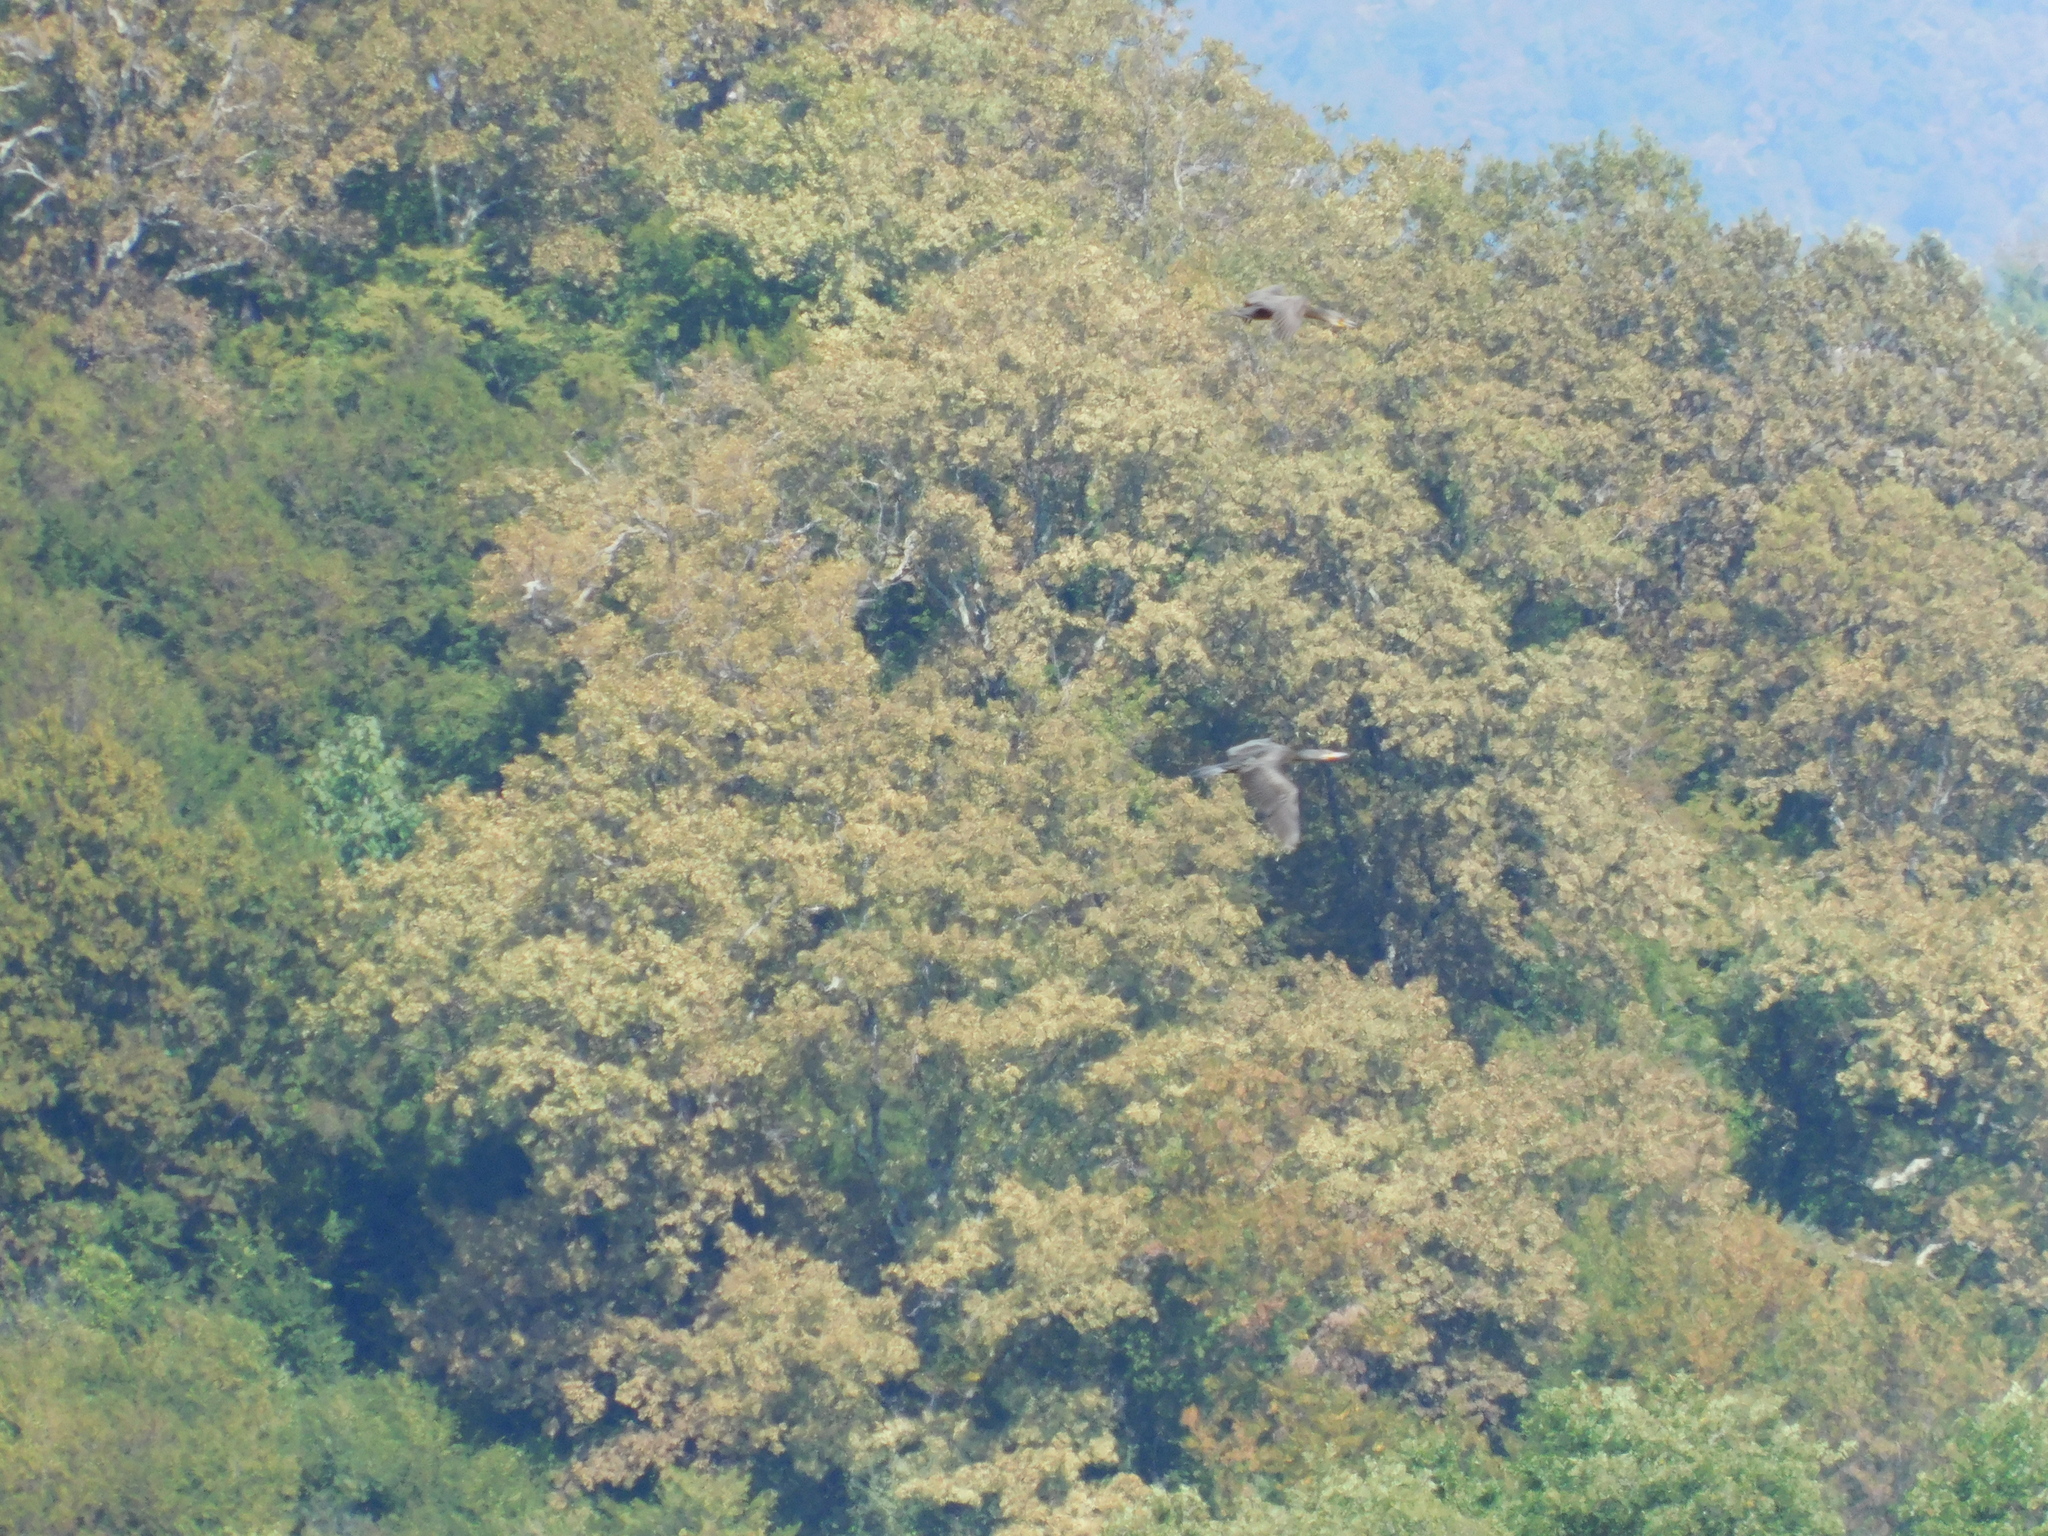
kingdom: Animalia
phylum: Chordata
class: Aves
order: Suliformes
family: Phalacrocoracidae
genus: Phalacrocorax
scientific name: Phalacrocorax carbo
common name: Great cormorant
